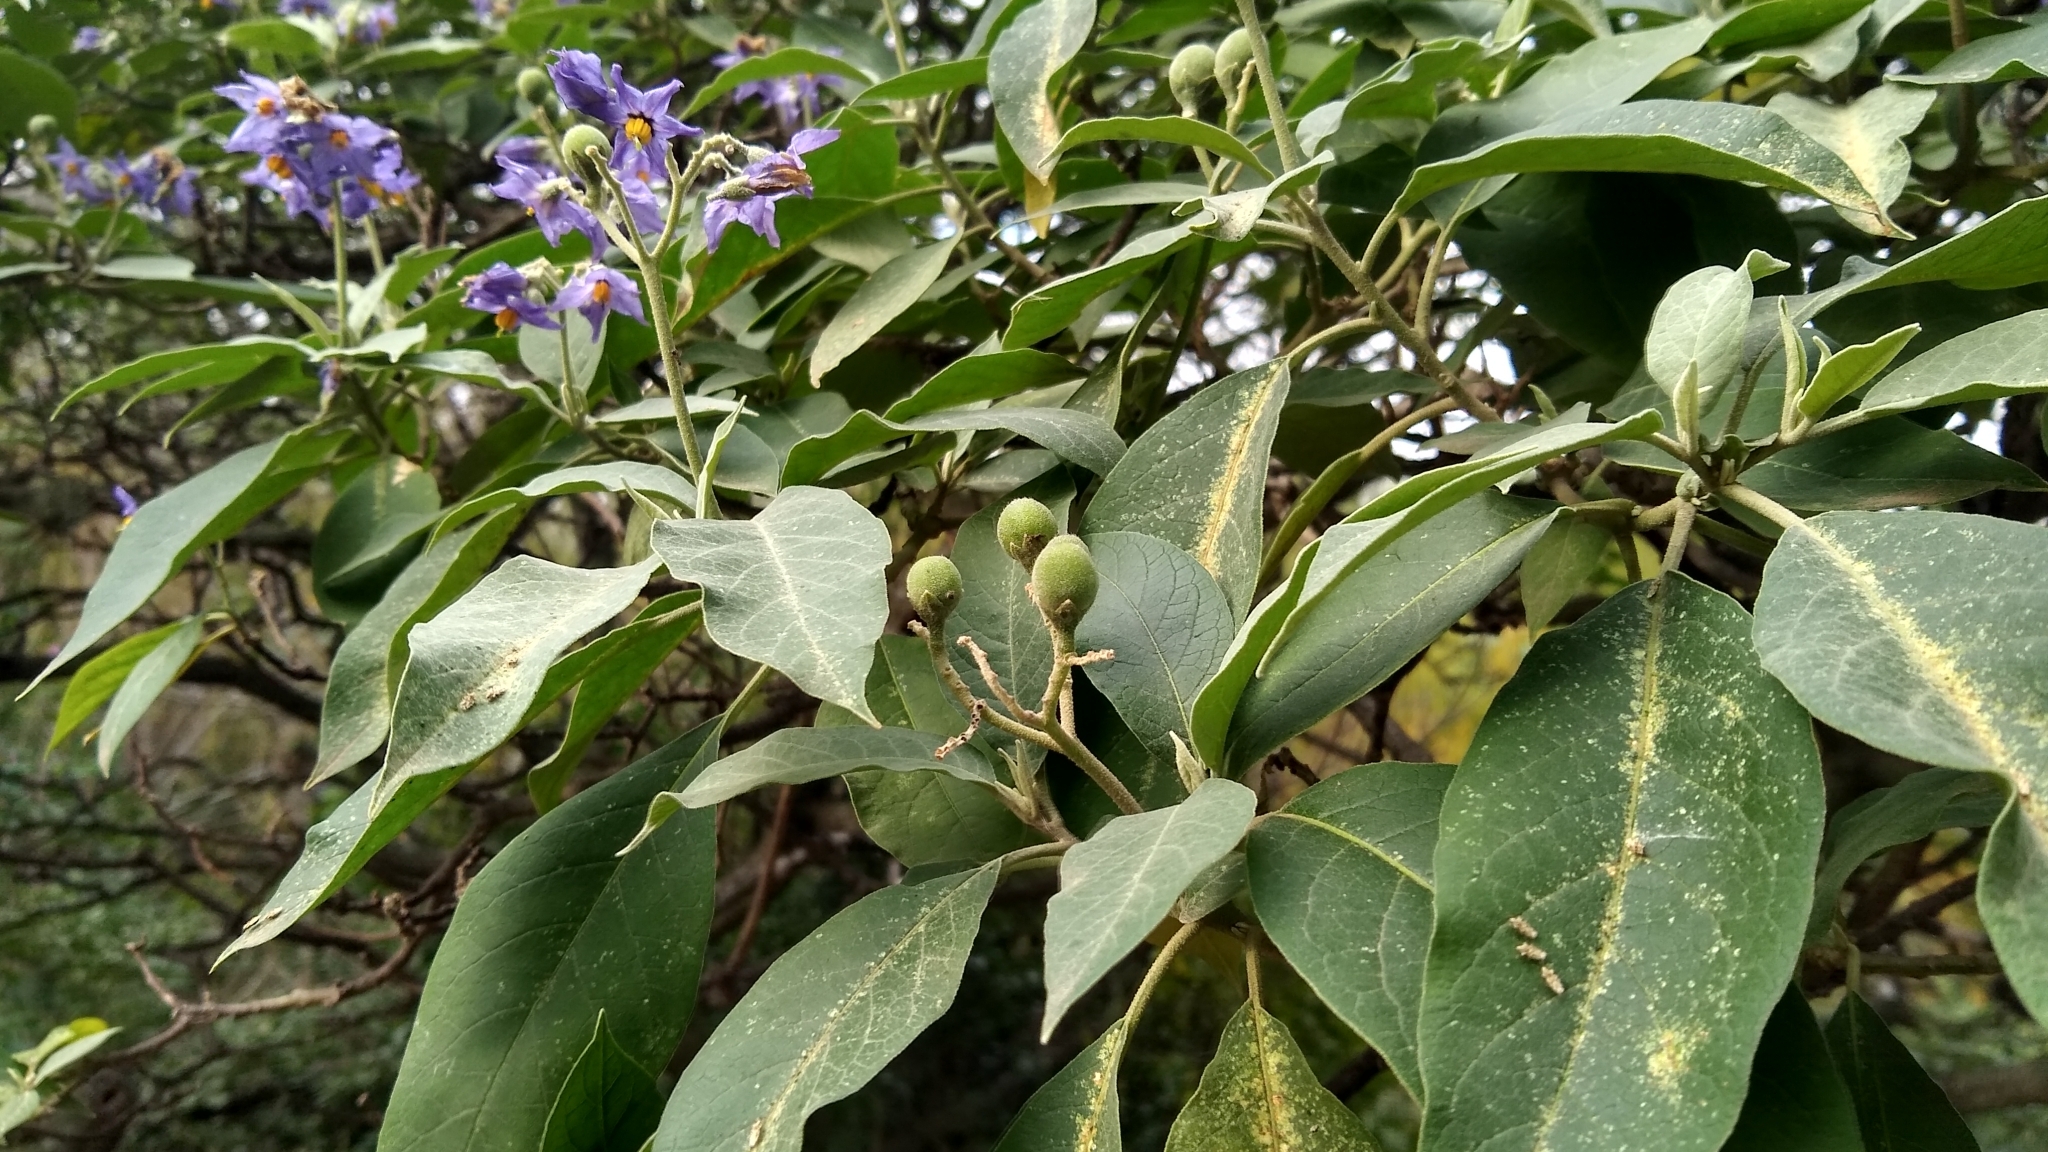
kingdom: Plantae
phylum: Tracheophyta
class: Magnoliopsida
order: Solanales
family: Solanaceae
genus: Solanum
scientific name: Solanum granulosoleprosum
